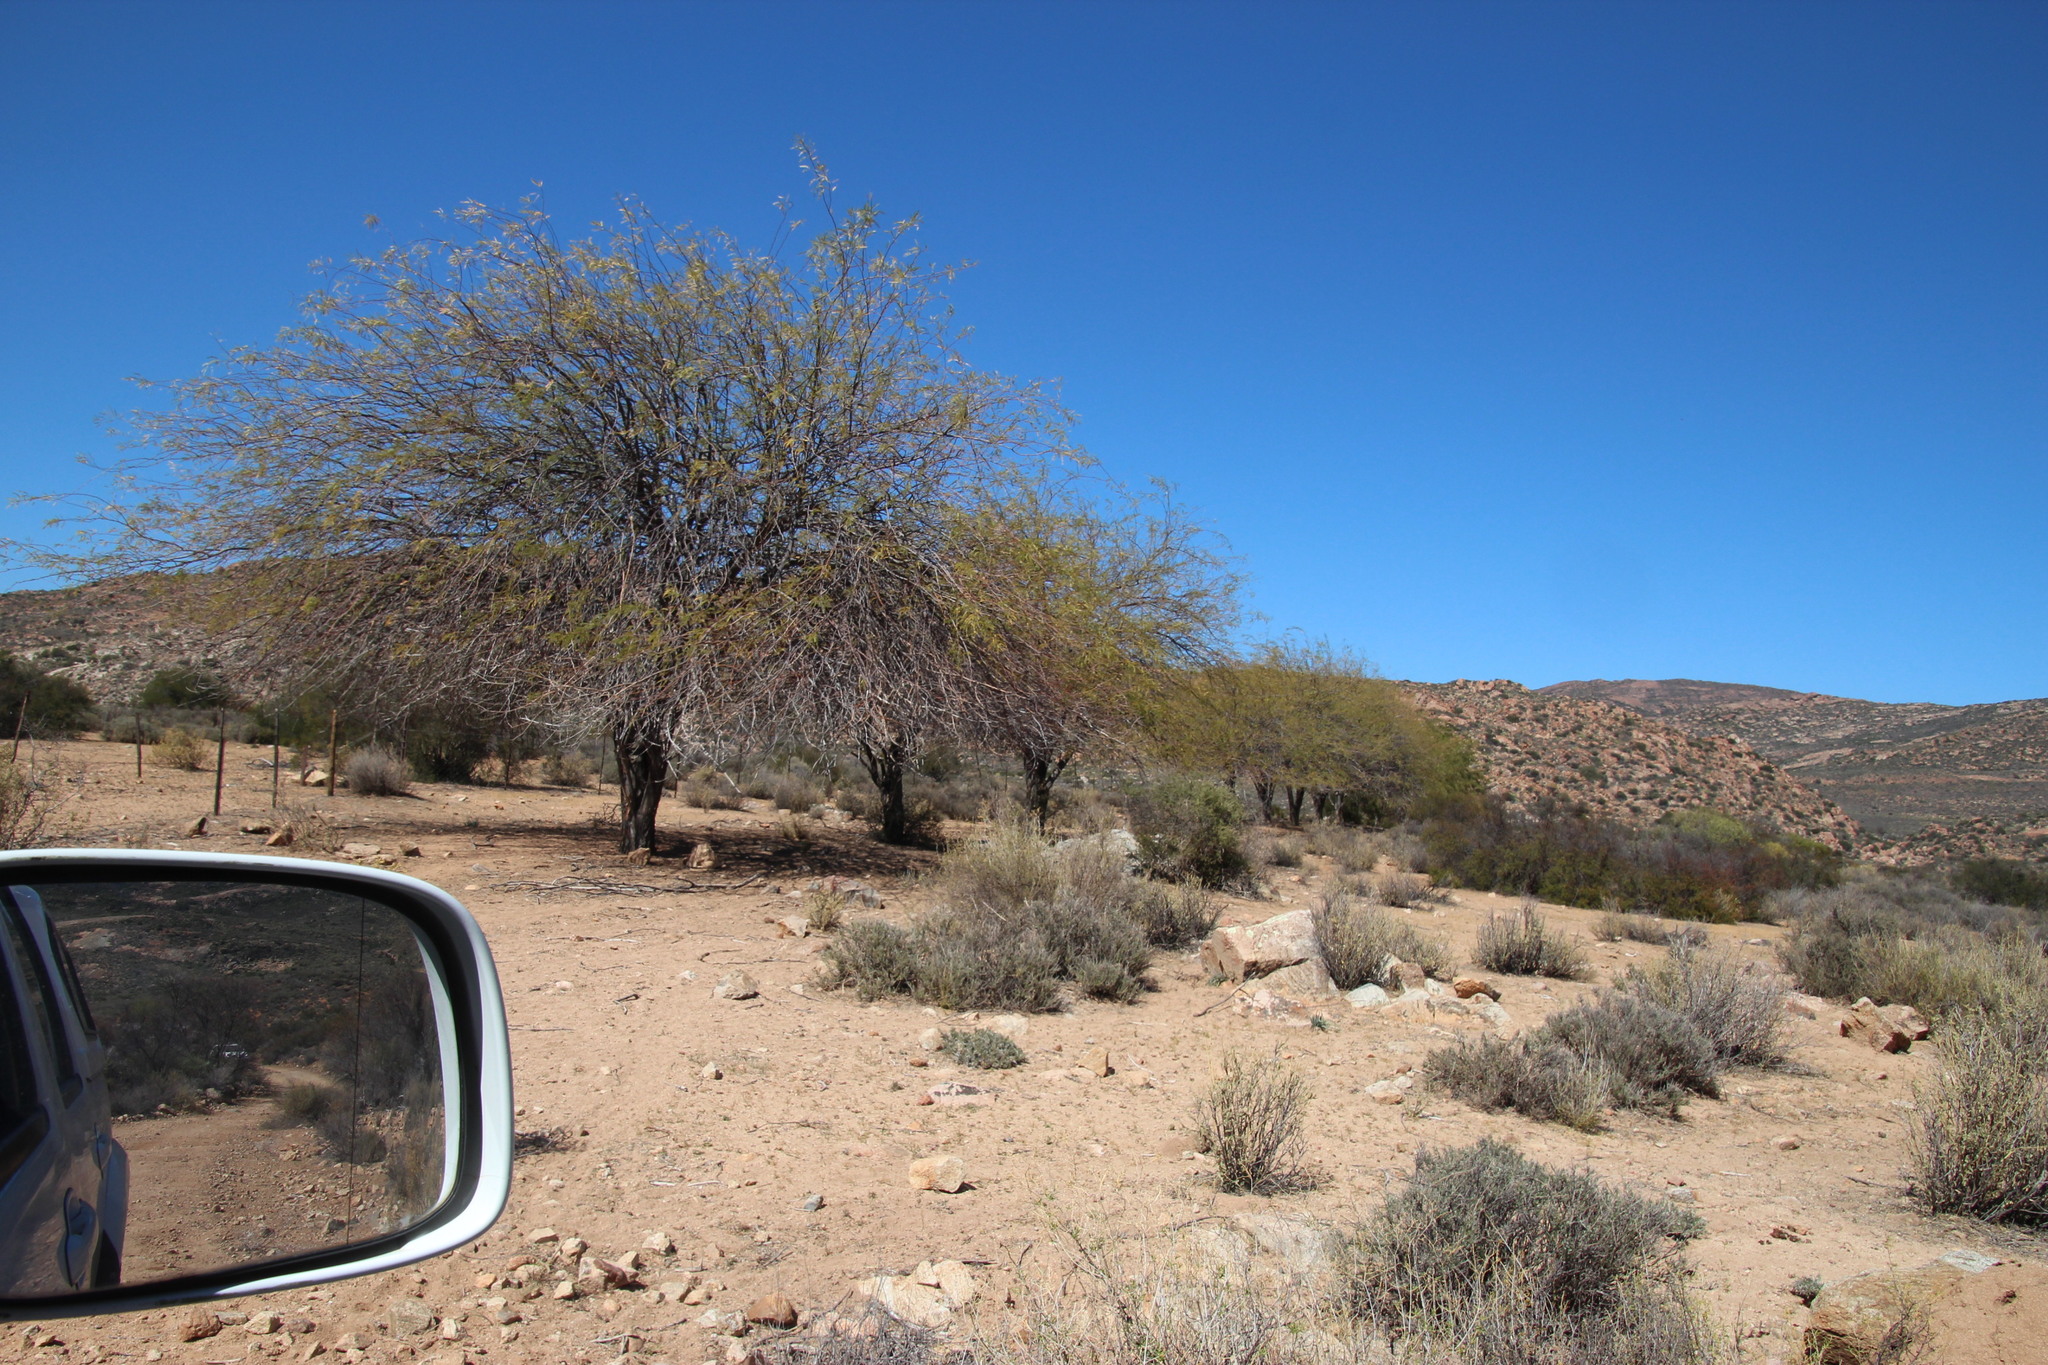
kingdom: Plantae
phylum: Tracheophyta
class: Magnoliopsida
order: Fabales
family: Fabaceae
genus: Prosopis
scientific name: Prosopis pubescens
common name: Screw-bean
